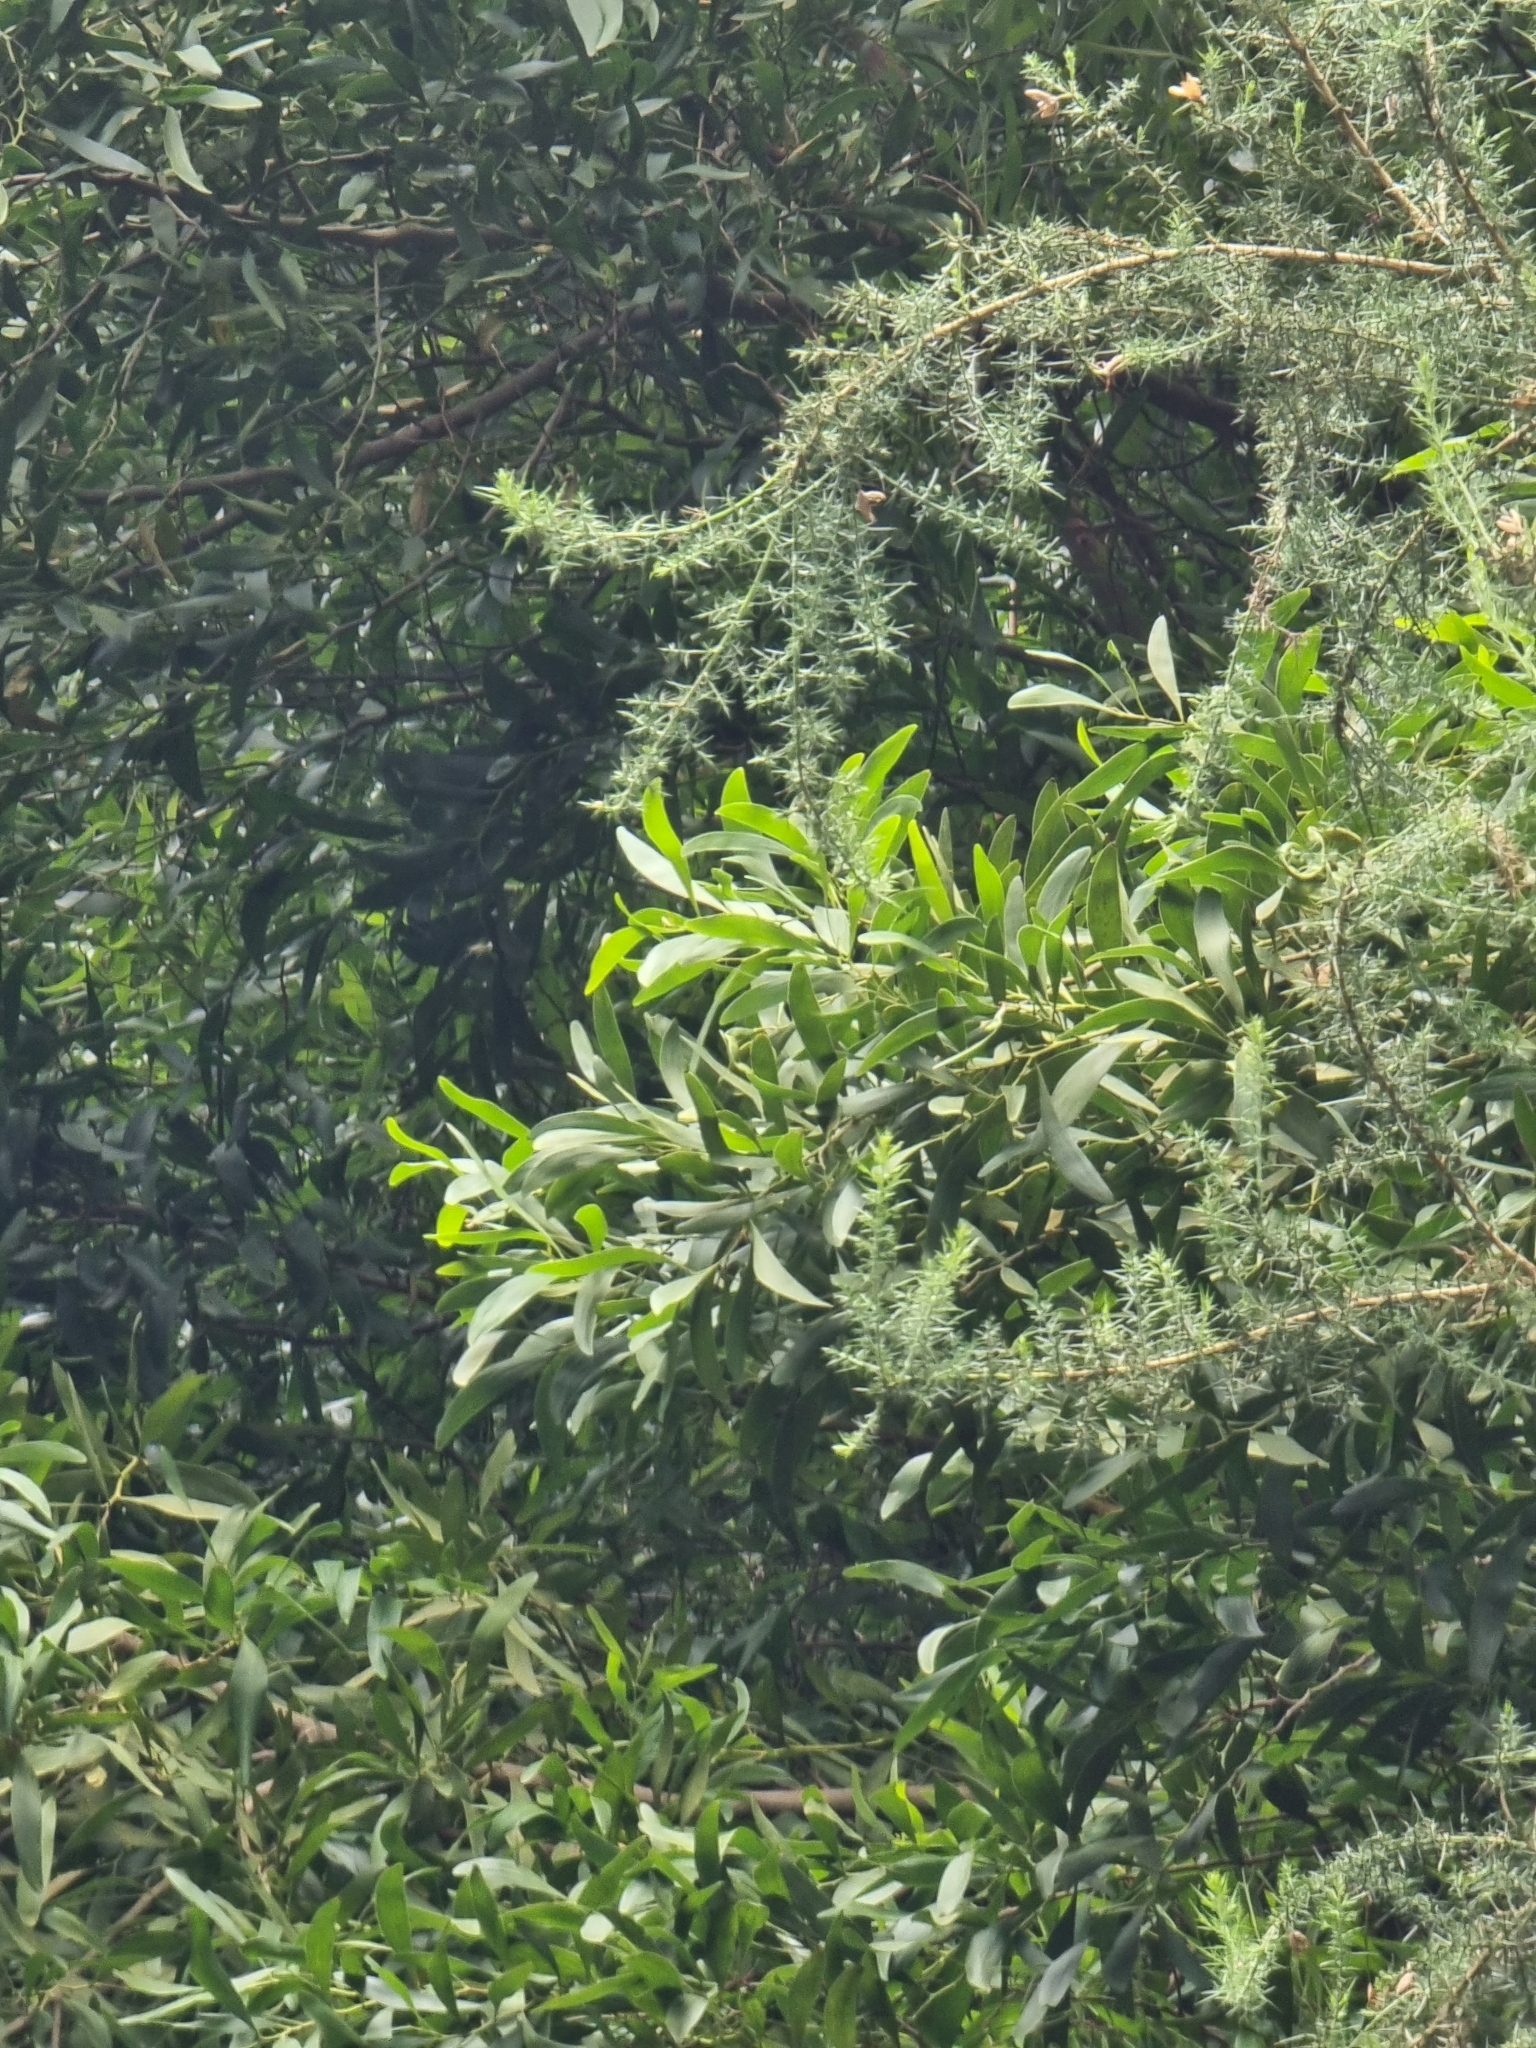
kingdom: Plantae
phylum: Tracheophyta
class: Magnoliopsida
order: Fabales
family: Fabaceae
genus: Acacia
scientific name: Acacia melanoxylon
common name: Blackwood
